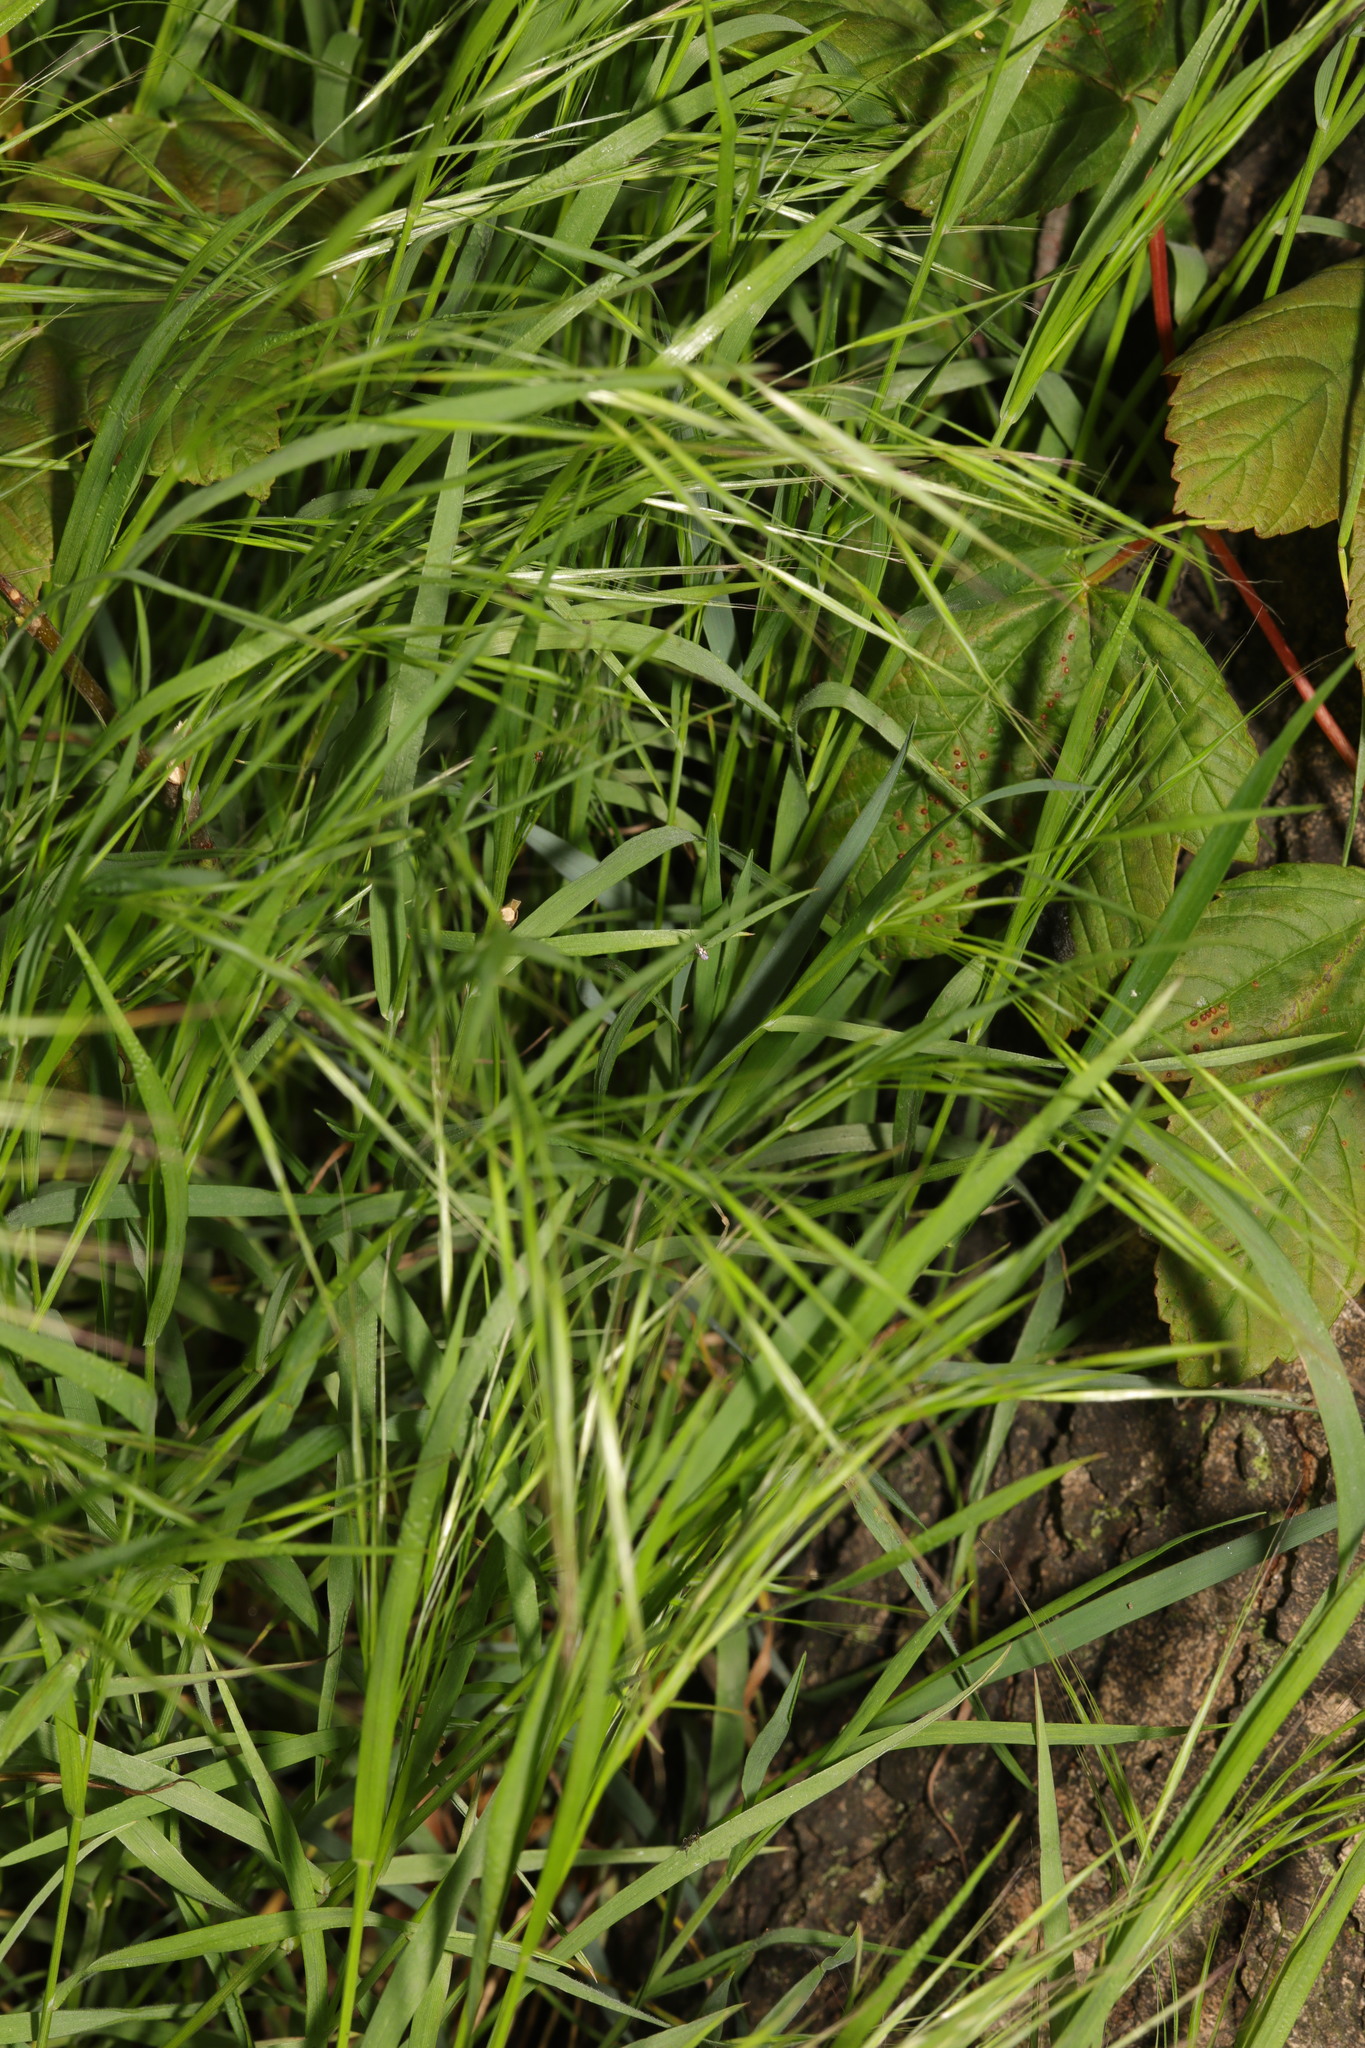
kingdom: Plantae
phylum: Tracheophyta
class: Liliopsida
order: Poales
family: Poaceae
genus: Bromus
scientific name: Bromus sterilis
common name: Poverty brome
